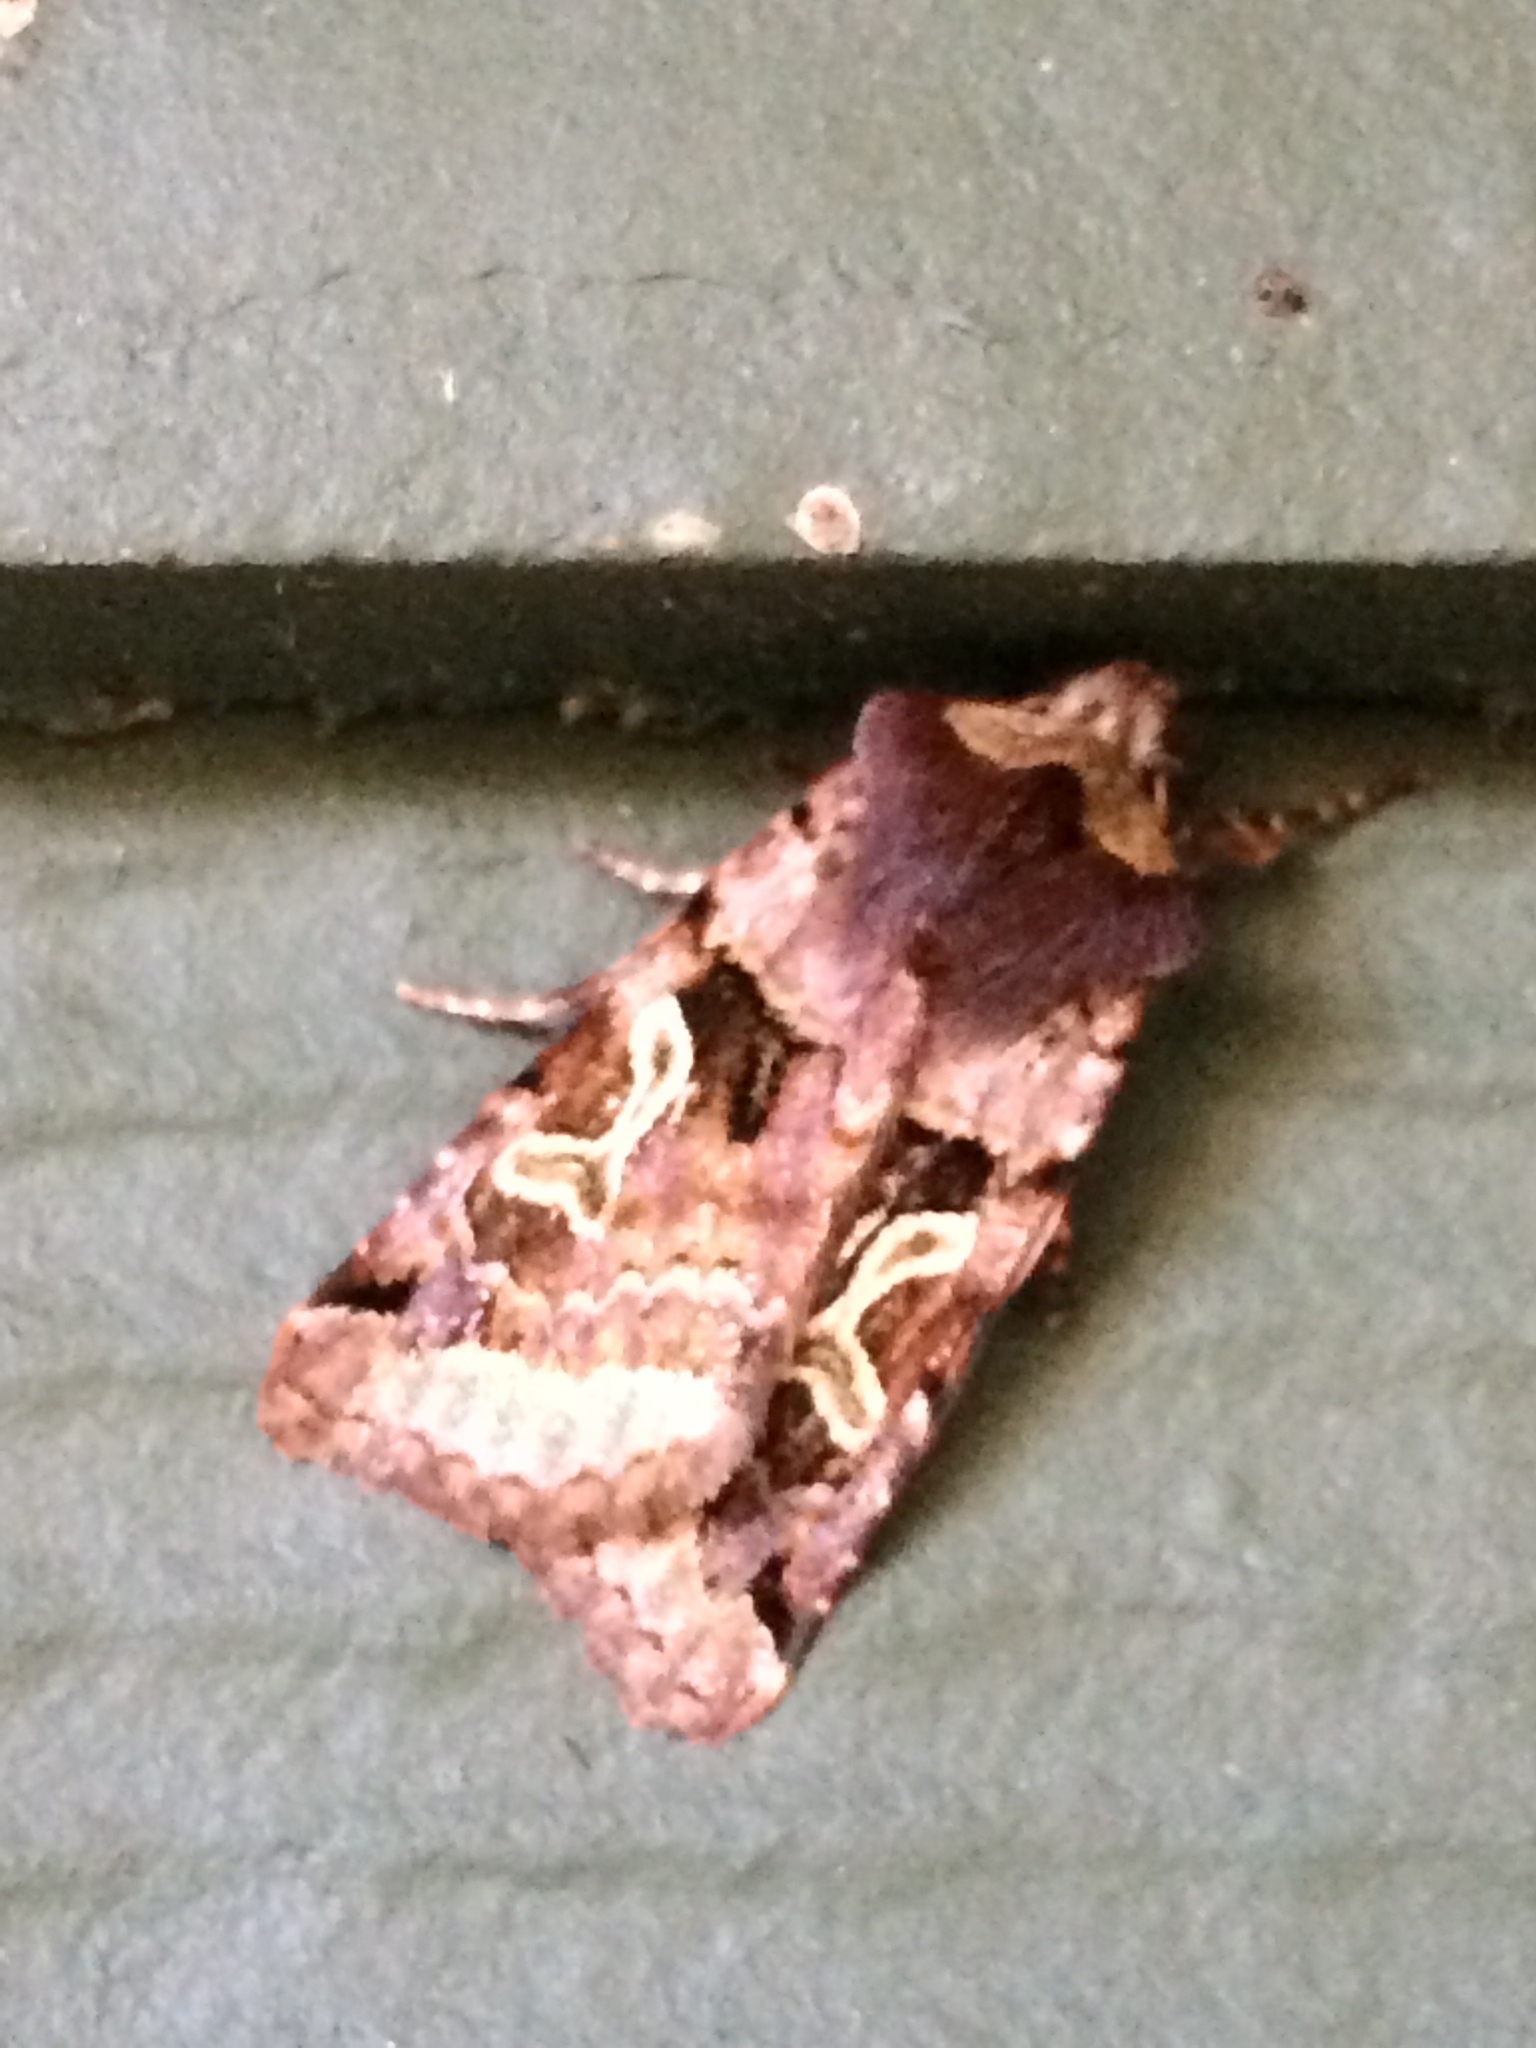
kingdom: Animalia
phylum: Arthropoda
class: Insecta
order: Lepidoptera
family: Noctuidae
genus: Cerastis
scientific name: Cerastis enigmatica
